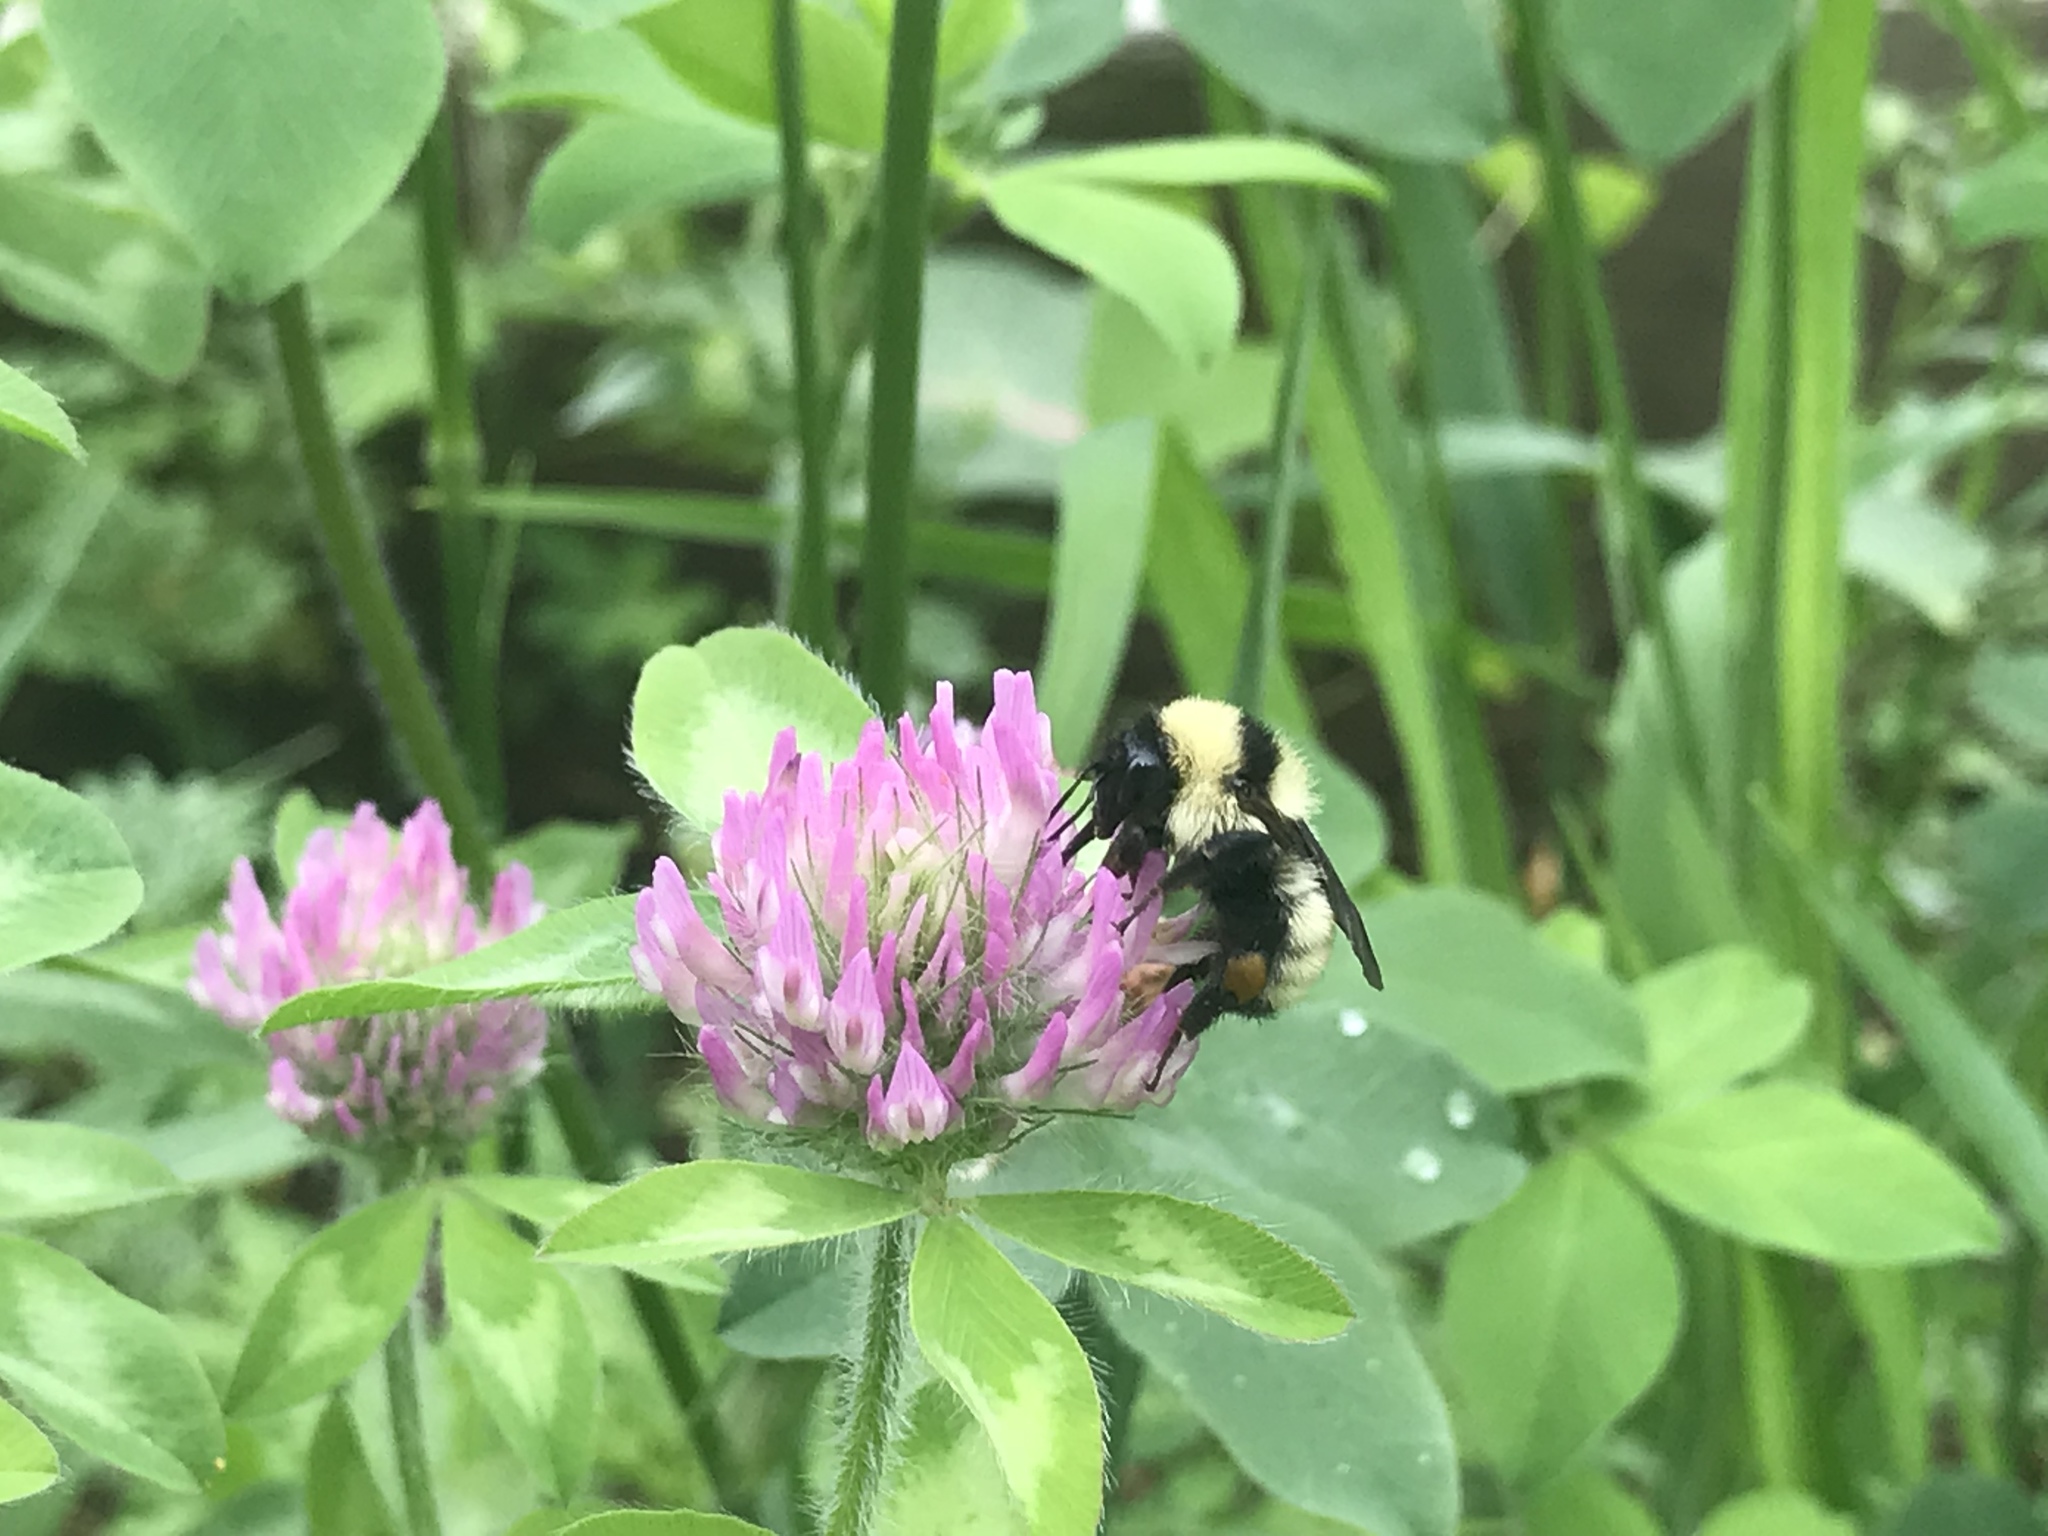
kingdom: Animalia
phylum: Arthropoda
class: Insecta
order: Hymenoptera
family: Apidae
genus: Bombus
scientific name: Bombus fervidus
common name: Yellow bumble bee
